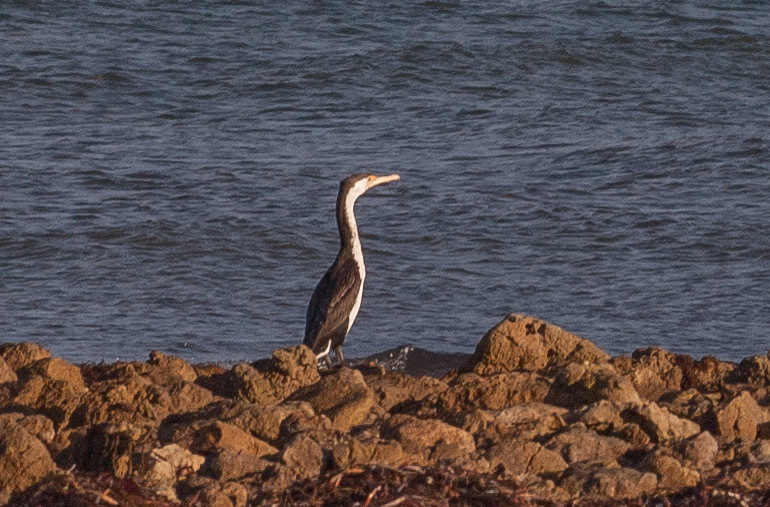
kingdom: Animalia
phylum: Chordata
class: Aves
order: Suliformes
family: Phalacrocoracidae
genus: Phalacrocorax
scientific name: Phalacrocorax varius
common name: Pied cormorant
